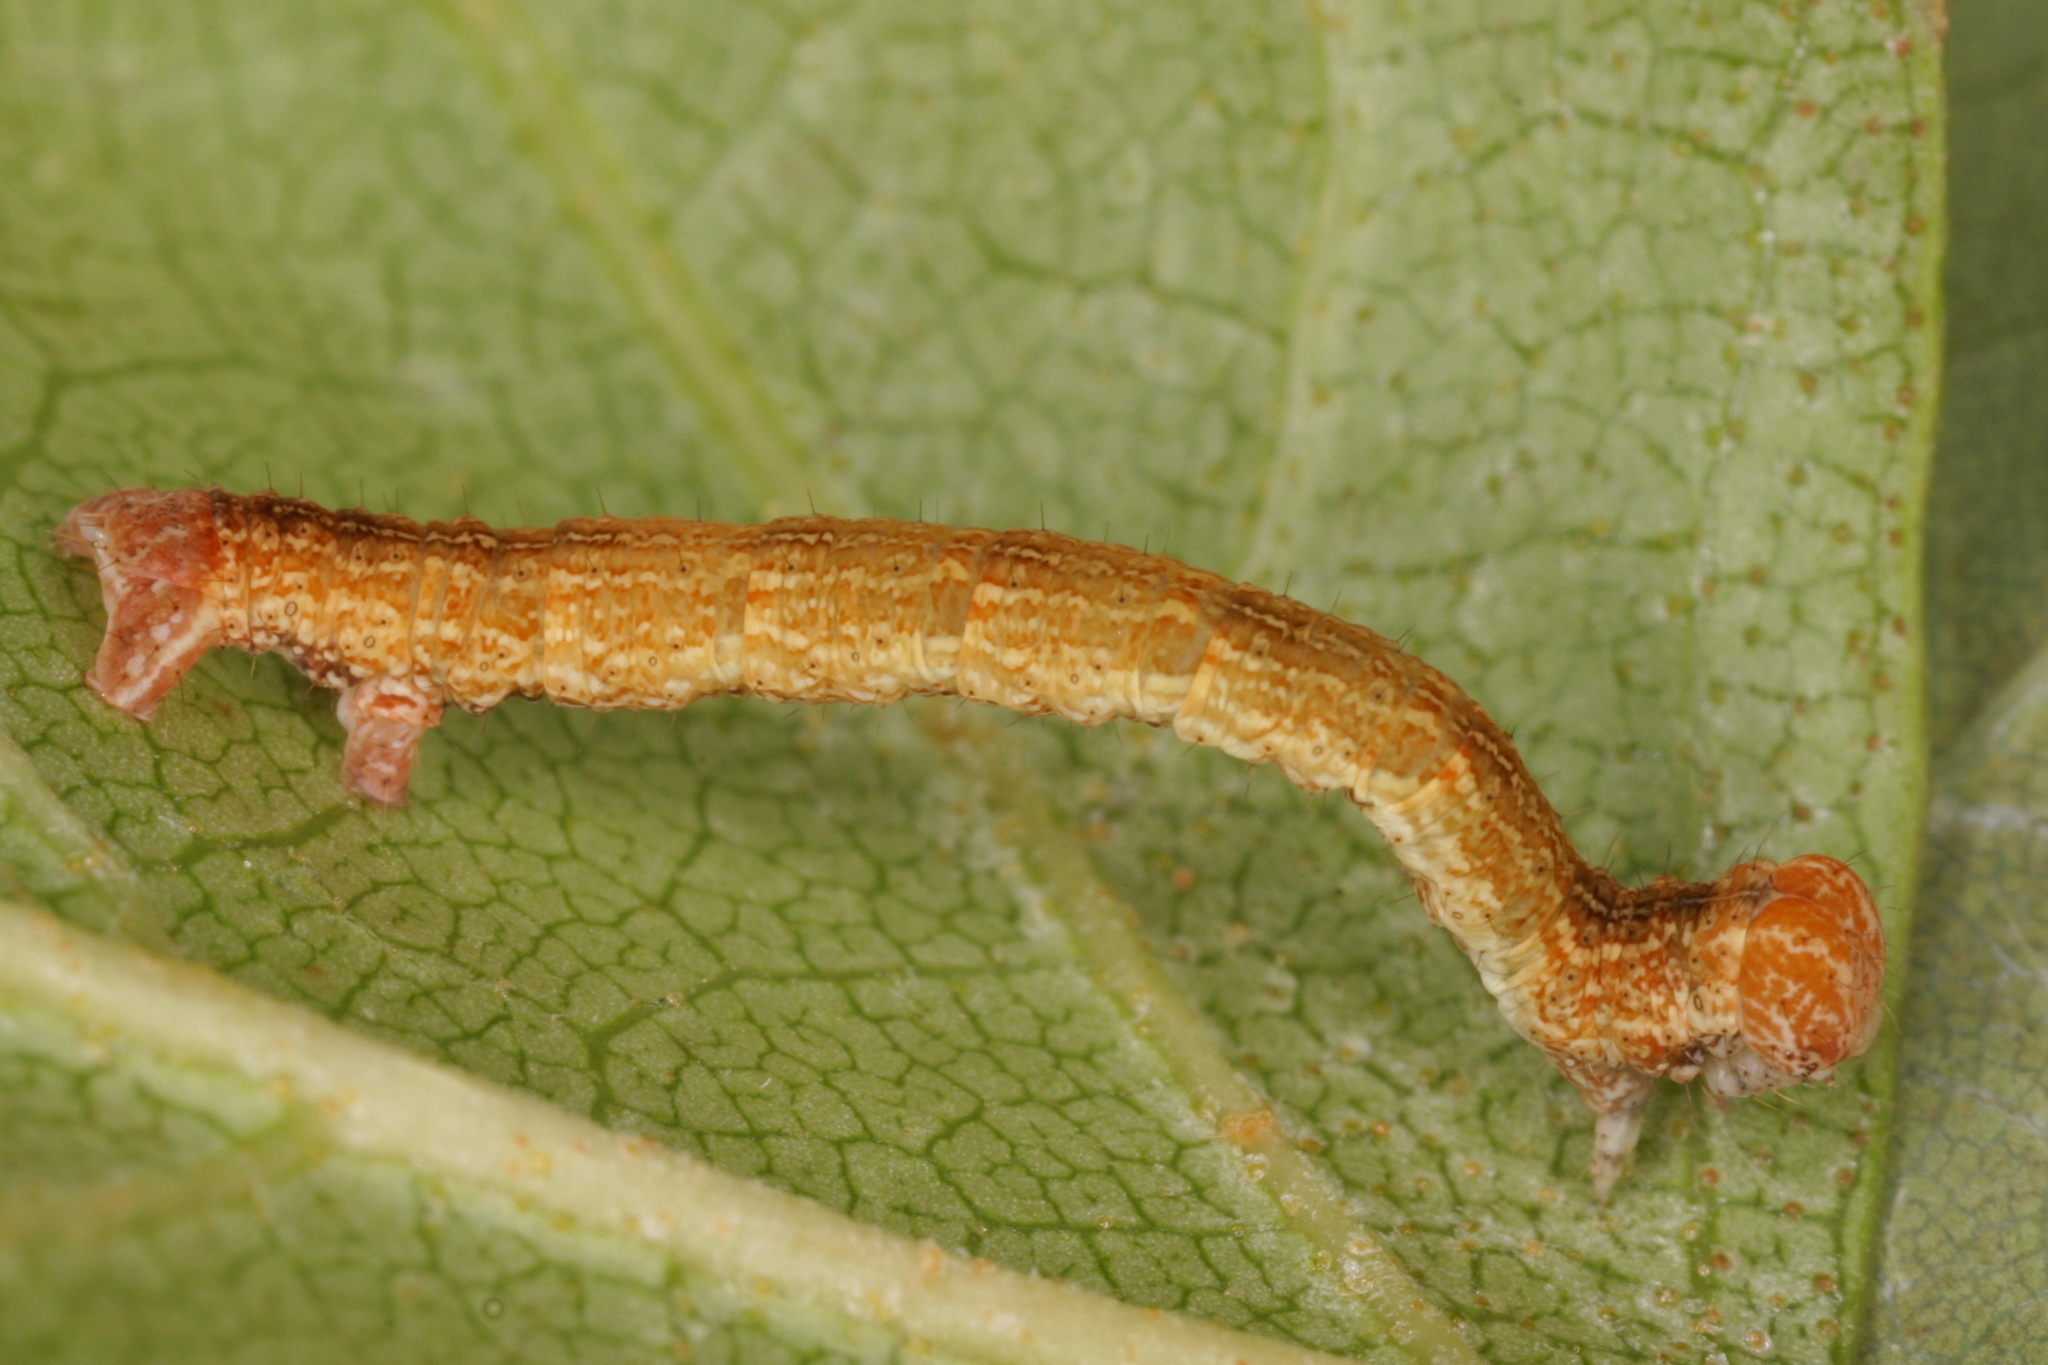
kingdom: Animalia
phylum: Arthropoda
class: Insecta
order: Lepidoptera
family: Geometridae
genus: Cyclophora
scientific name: Cyclophora albipunctata
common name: Birch mocha
